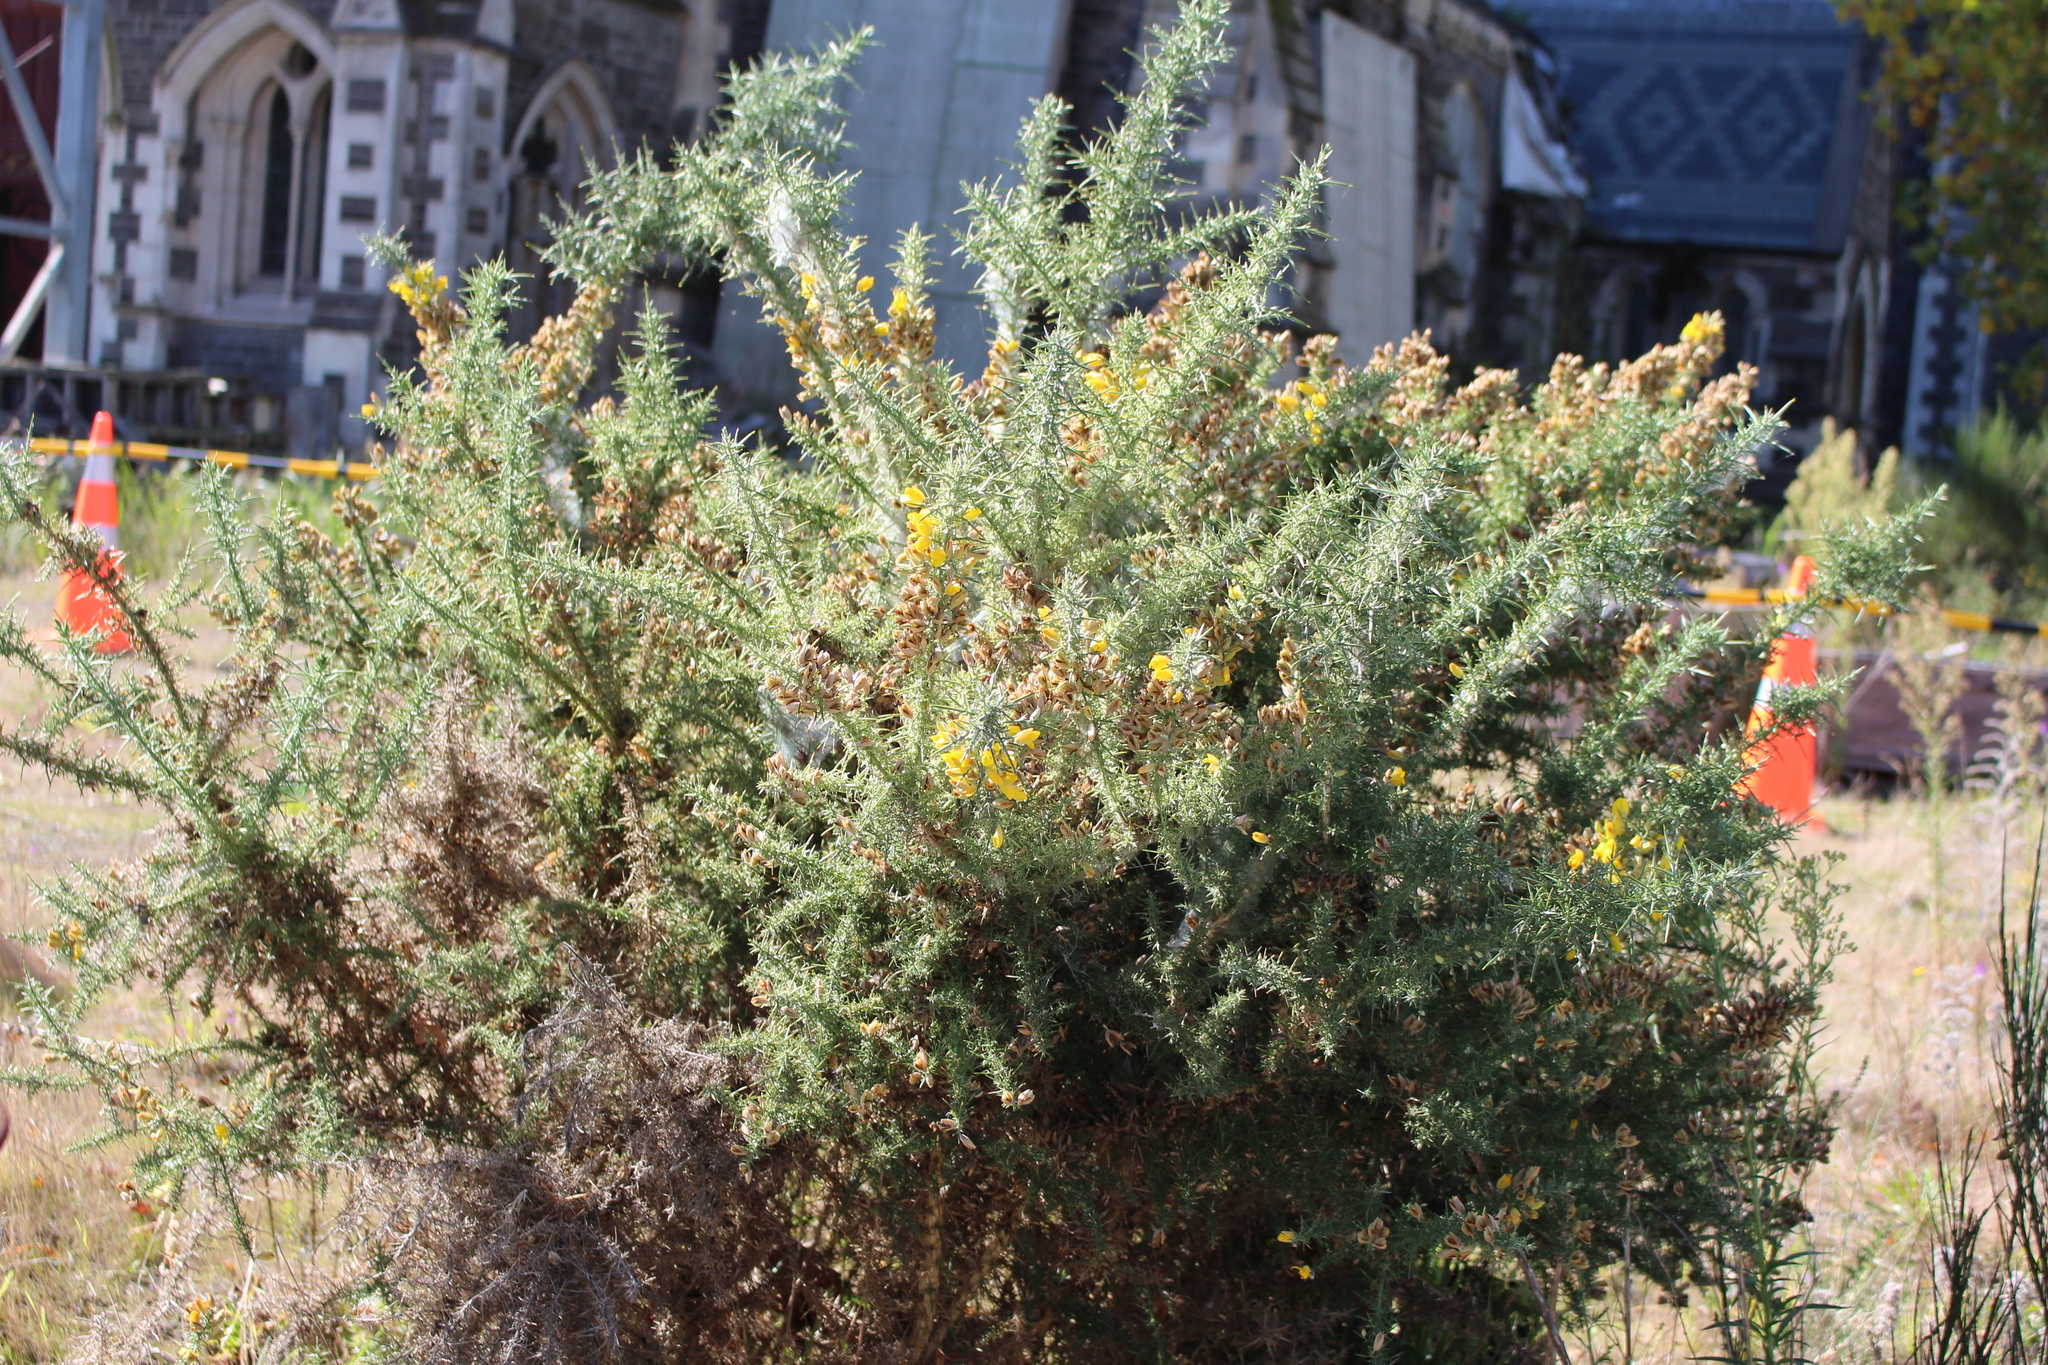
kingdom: Plantae
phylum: Tracheophyta
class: Magnoliopsida
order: Fabales
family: Fabaceae
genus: Ulex
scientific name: Ulex europaeus
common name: Common gorse
